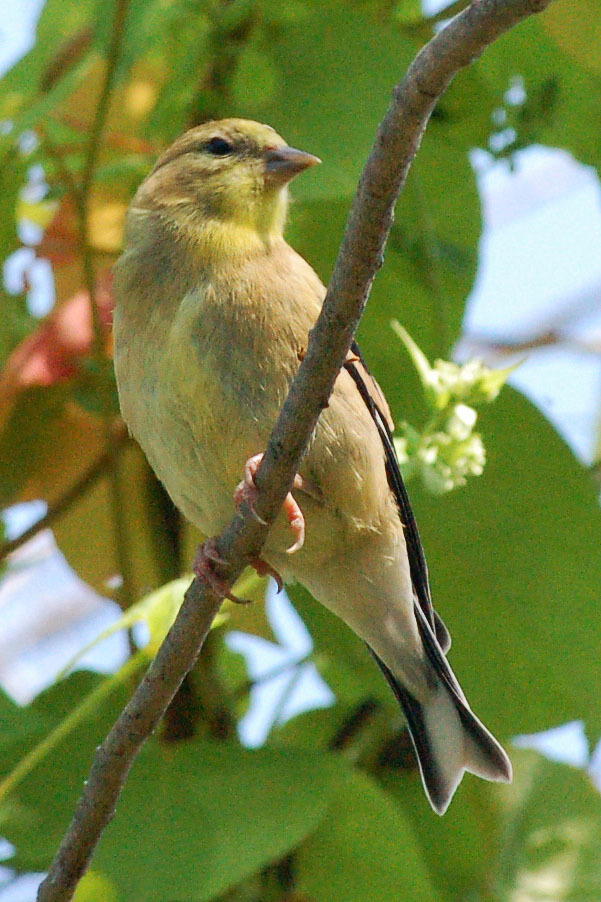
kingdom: Animalia
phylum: Chordata
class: Aves
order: Passeriformes
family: Fringillidae
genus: Spinus
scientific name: Spinus tristis
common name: American goldfinch
